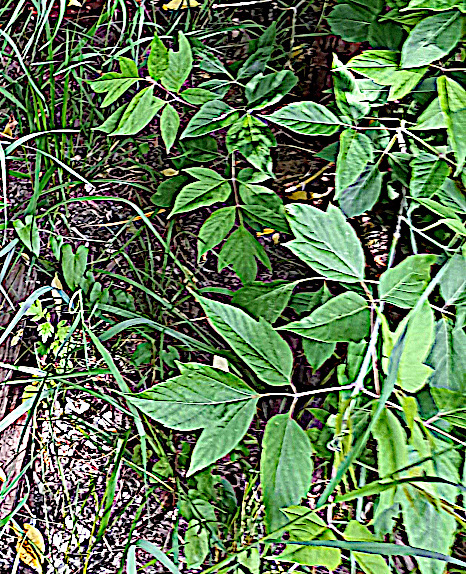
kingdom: Plantae
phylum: Tracheophyta
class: Magnoliopsida
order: Sapindales
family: Sapindaceae
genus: Acer
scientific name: Acer negundo
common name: Ashleaf maple
